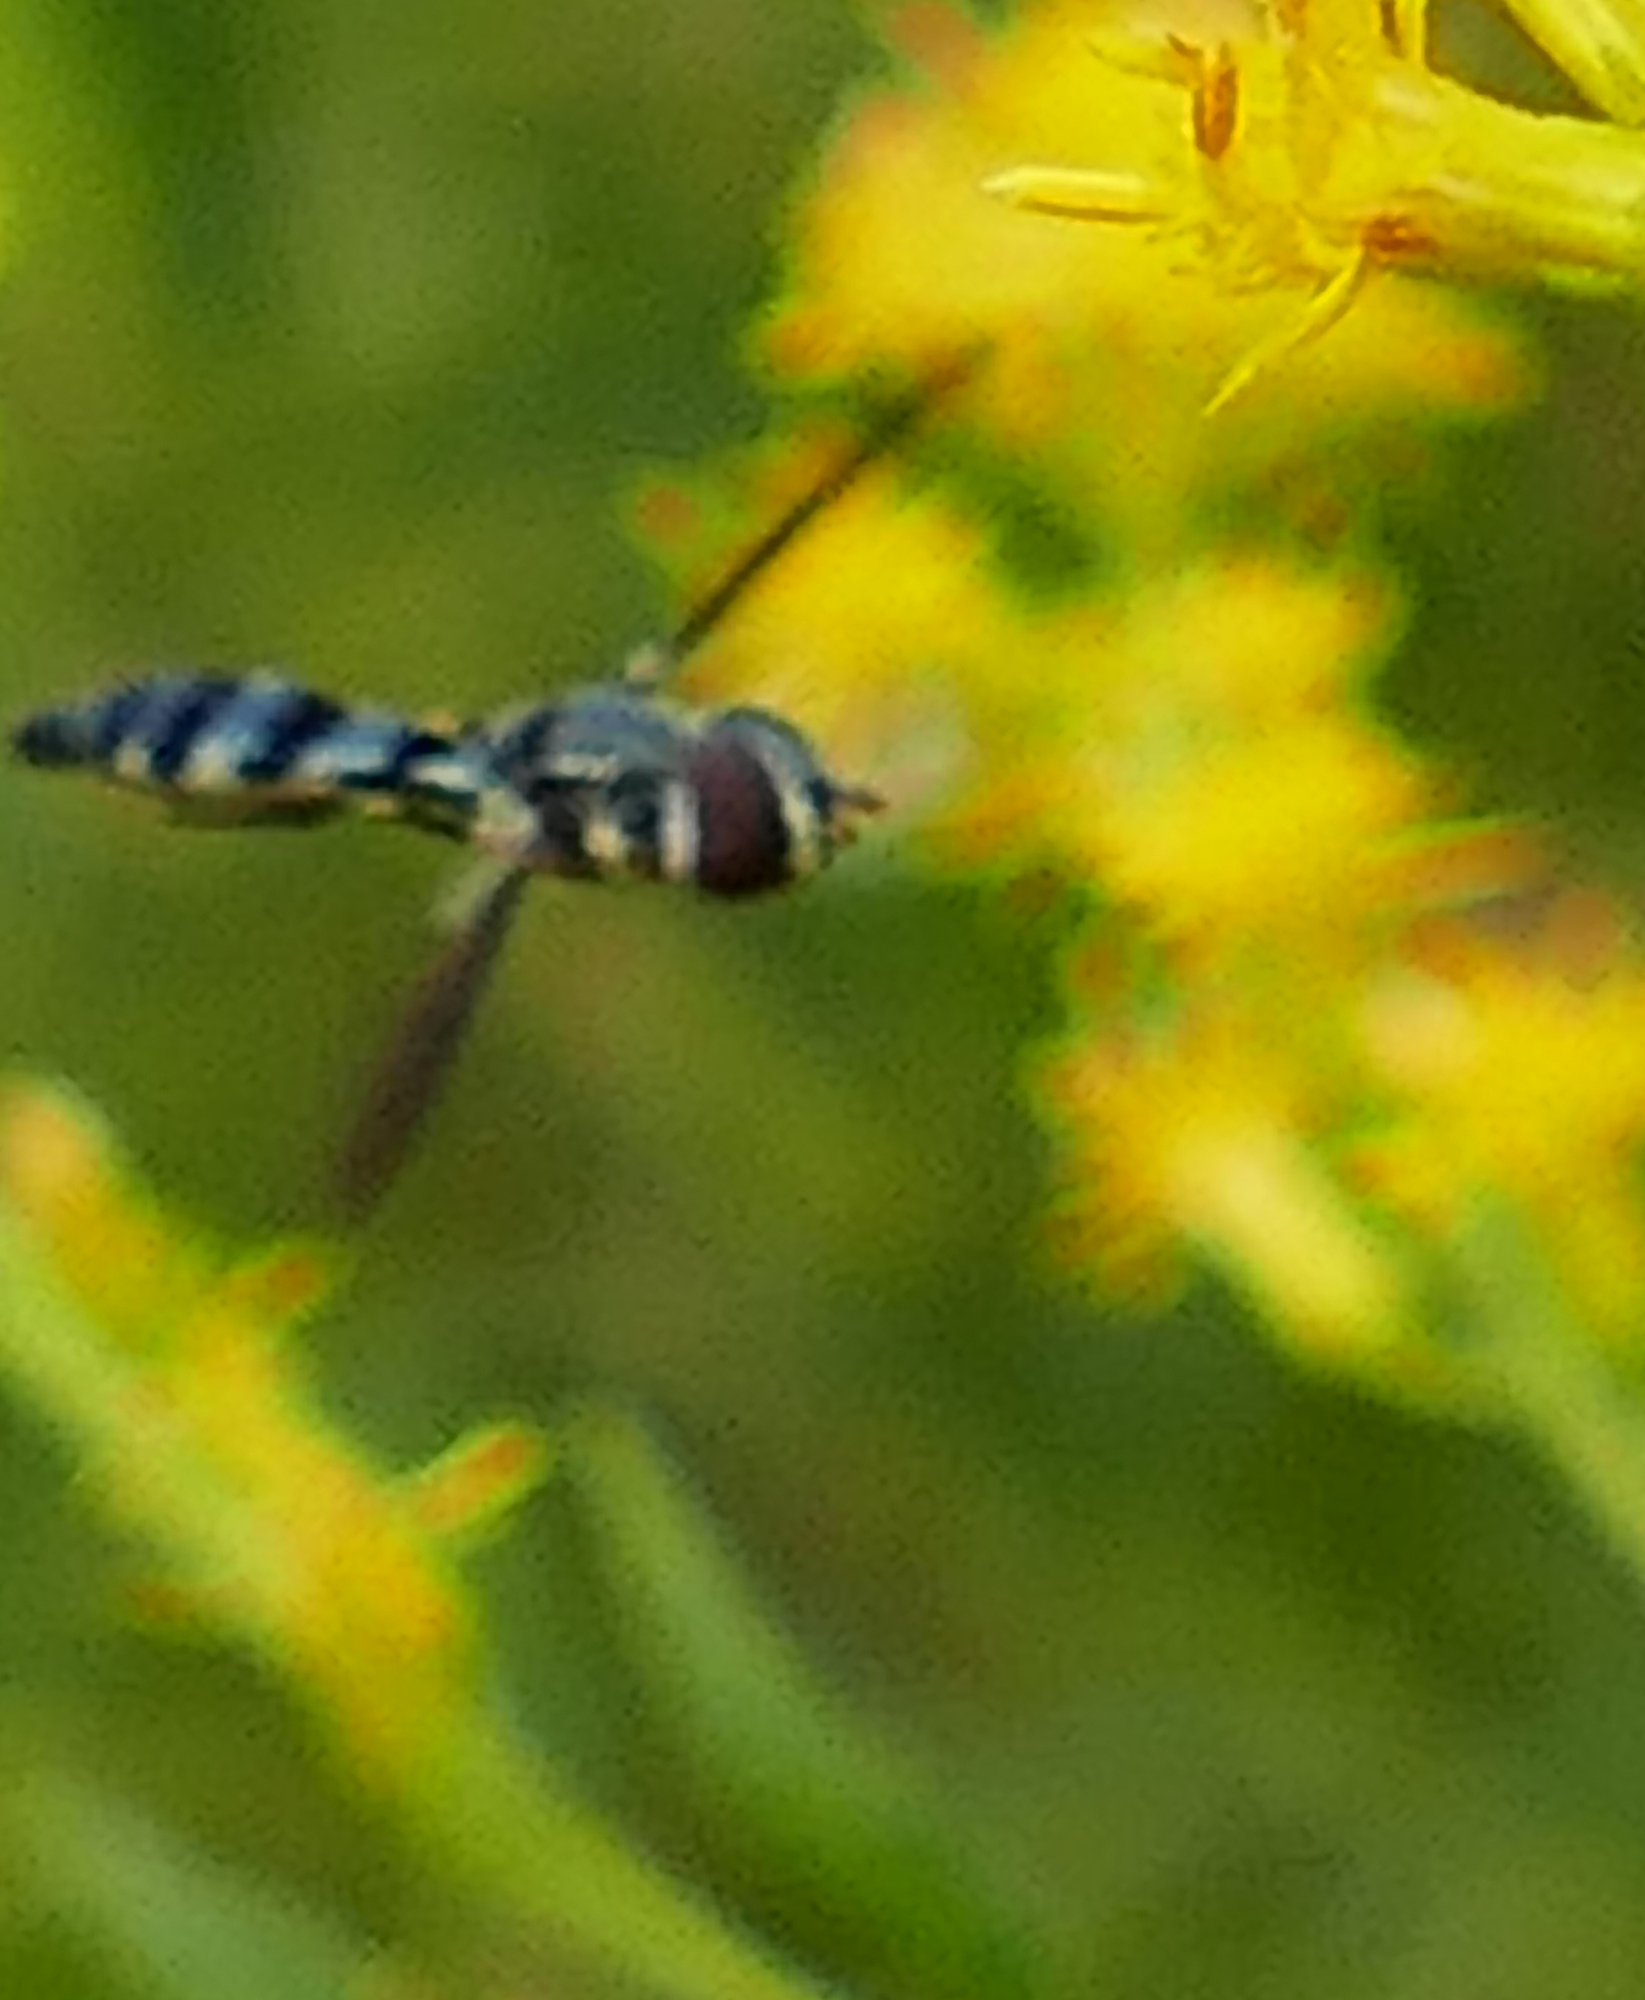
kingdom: Animalia
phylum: Arthropoda
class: Insecta
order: Diptera
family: Syrphidae
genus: Ocyptamus
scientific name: Ocyptamus costatus
